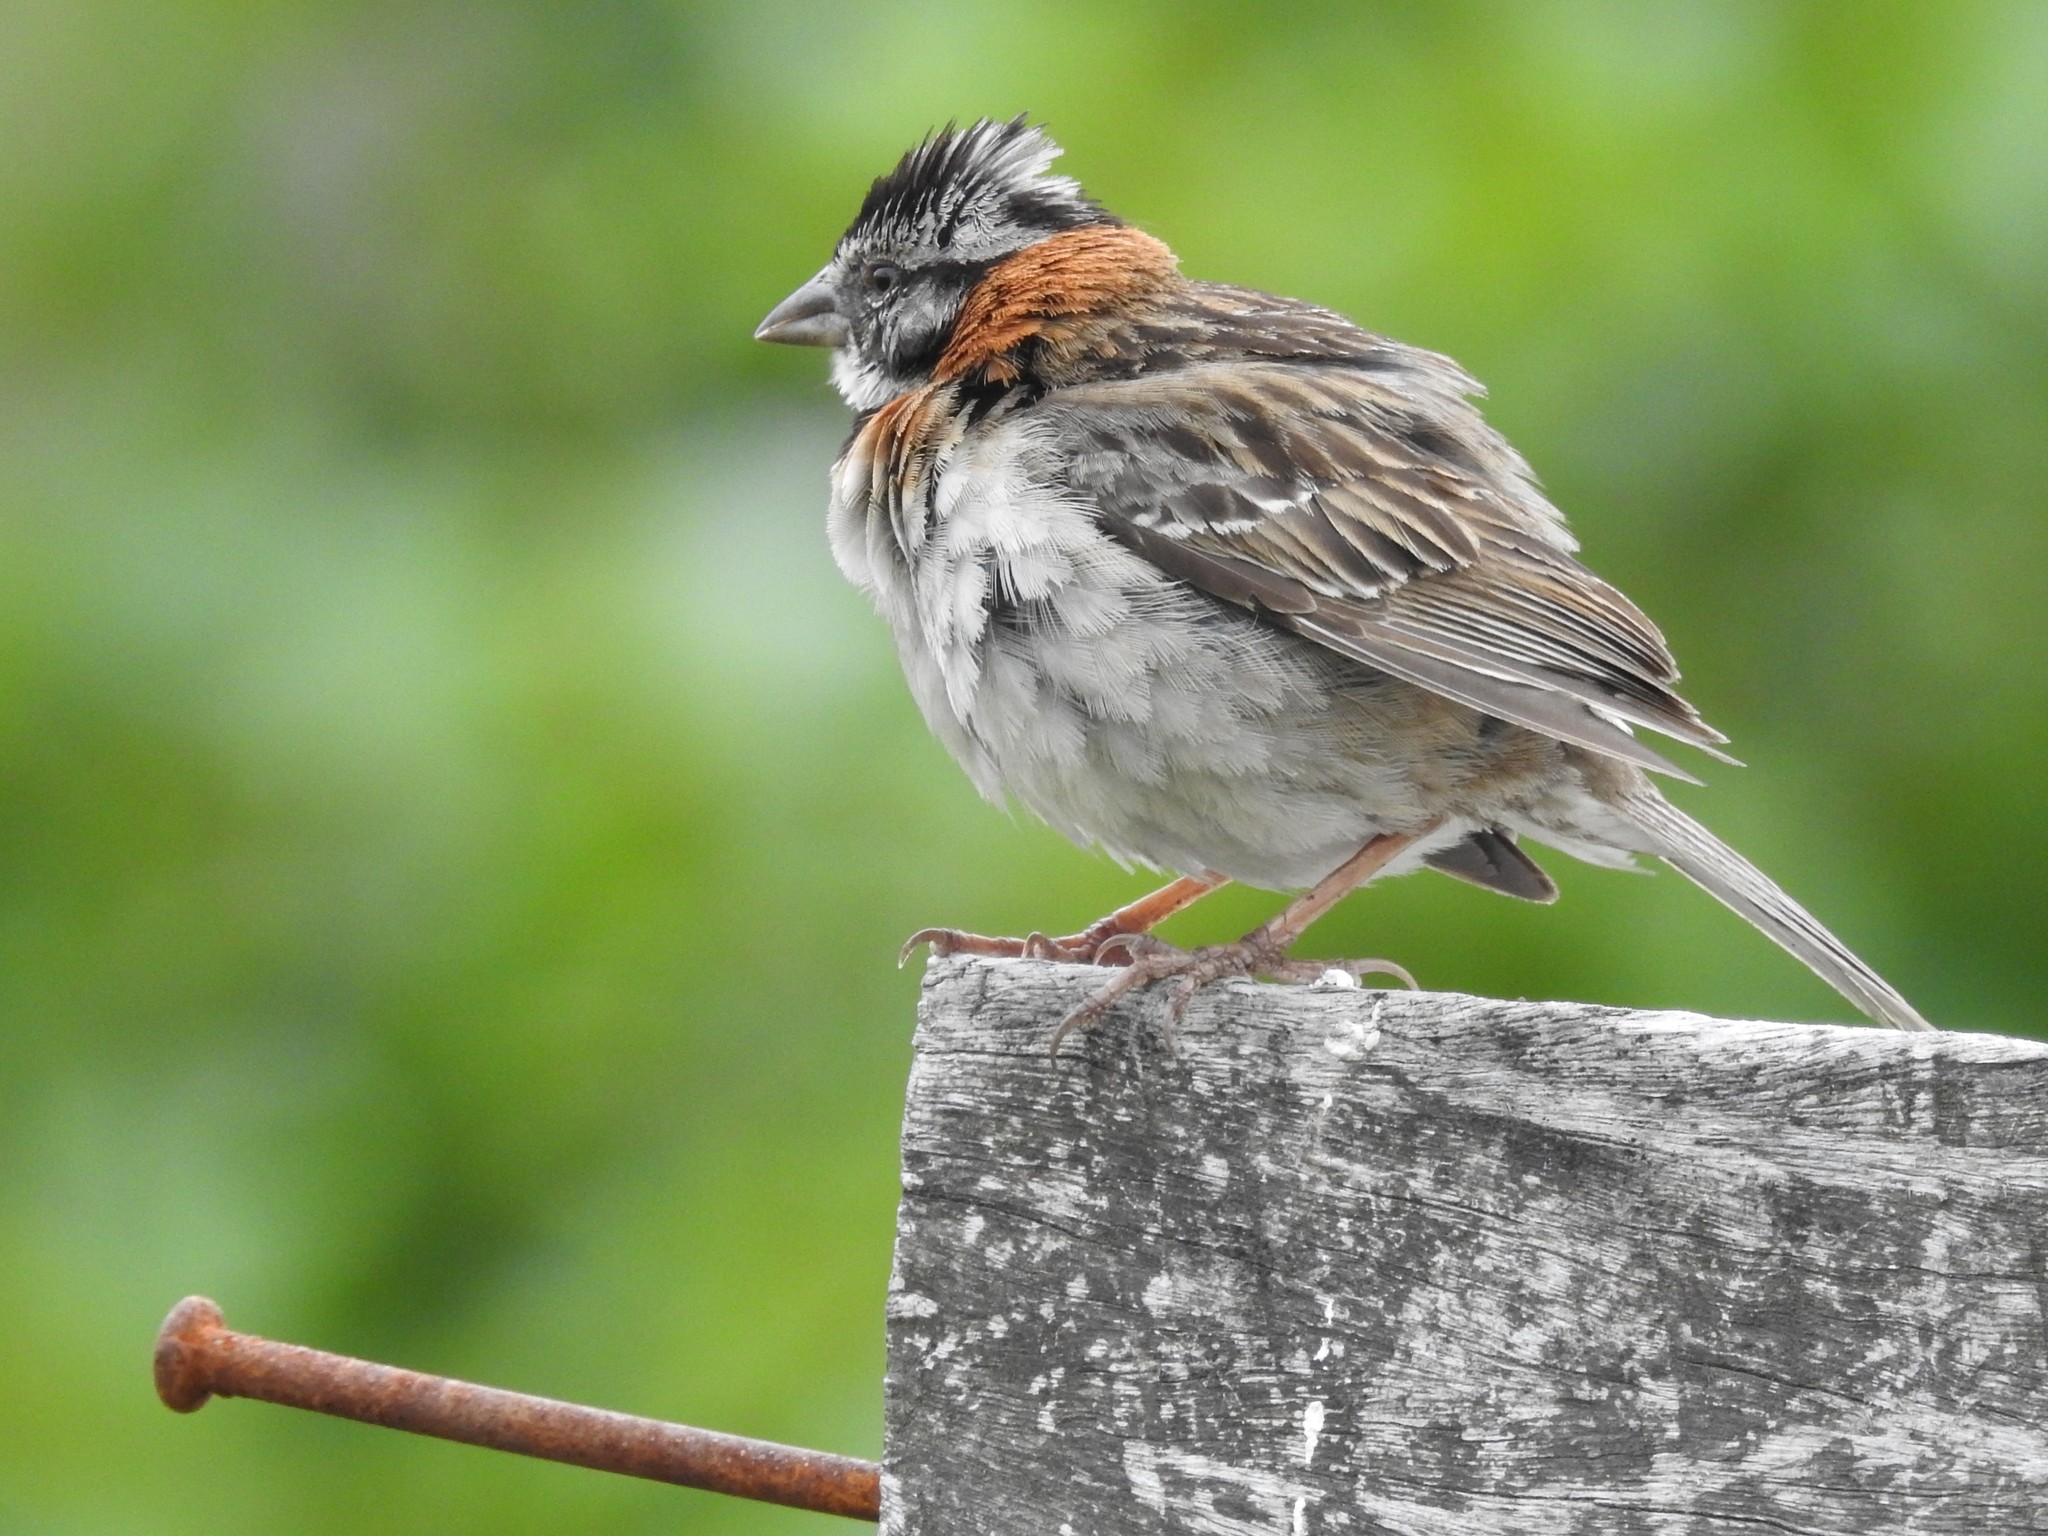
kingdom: Animalia
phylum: Chordata
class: Aves
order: Passeriformes
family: Passerellidae
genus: Zonotrichia
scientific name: Zonotrichia capensis
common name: Rufous-collared sparrow
